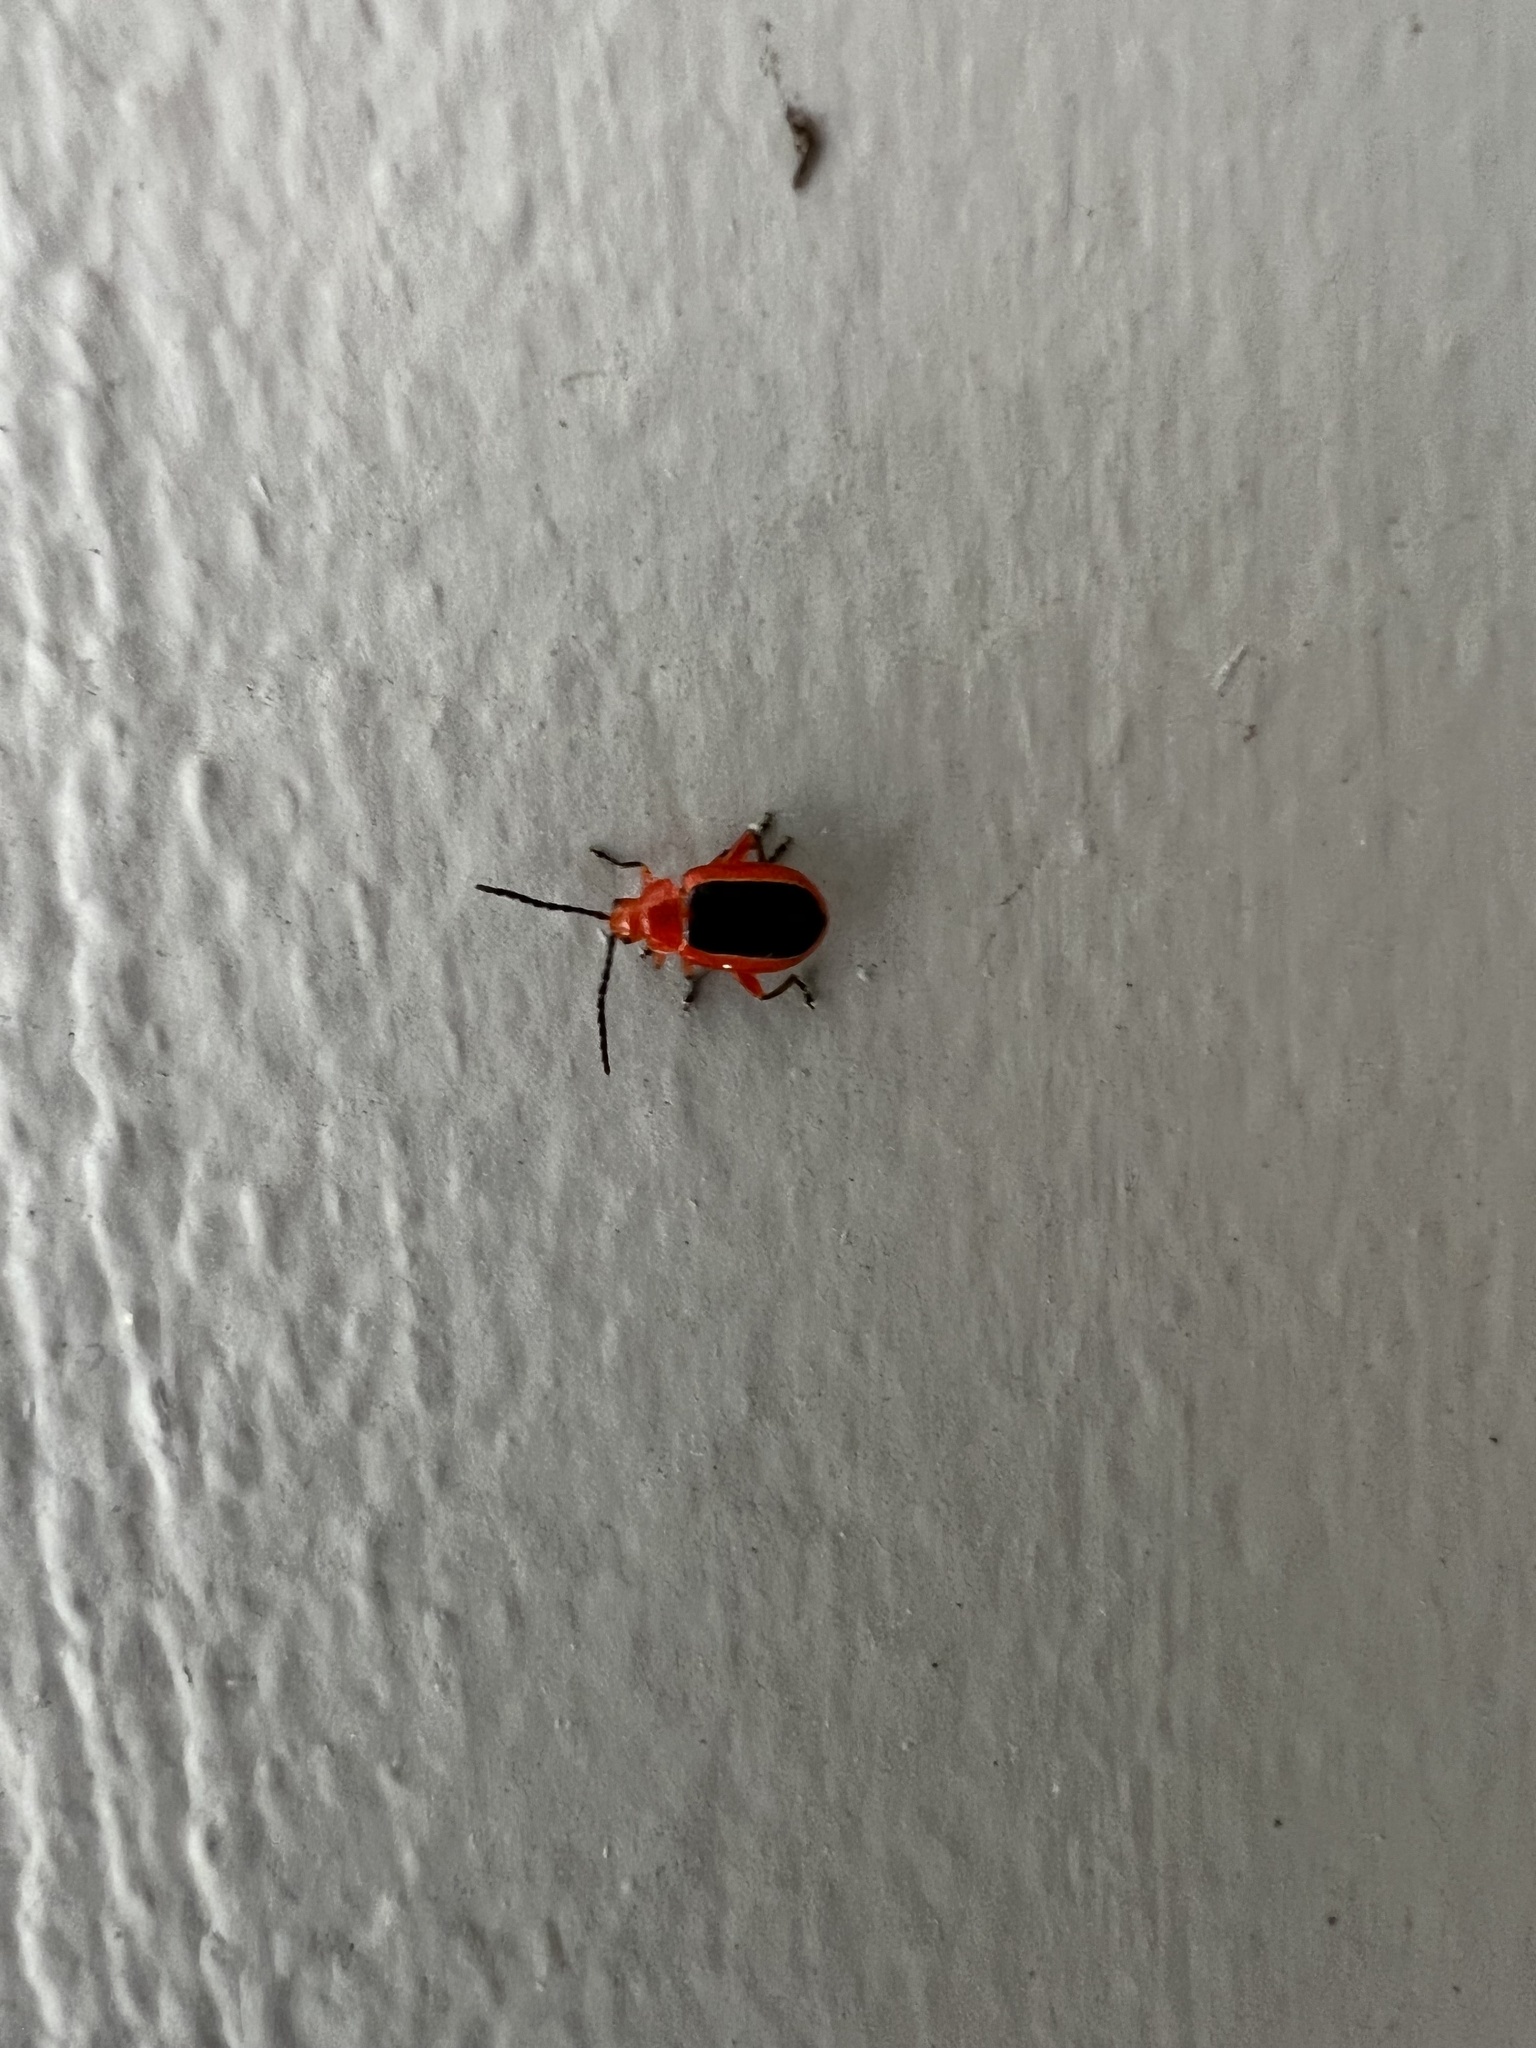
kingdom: Animalia
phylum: Arthropoda
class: Insecta
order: Coleoptera
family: Chrysomelidae
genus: Disonycha
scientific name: Disonycha discoidea
